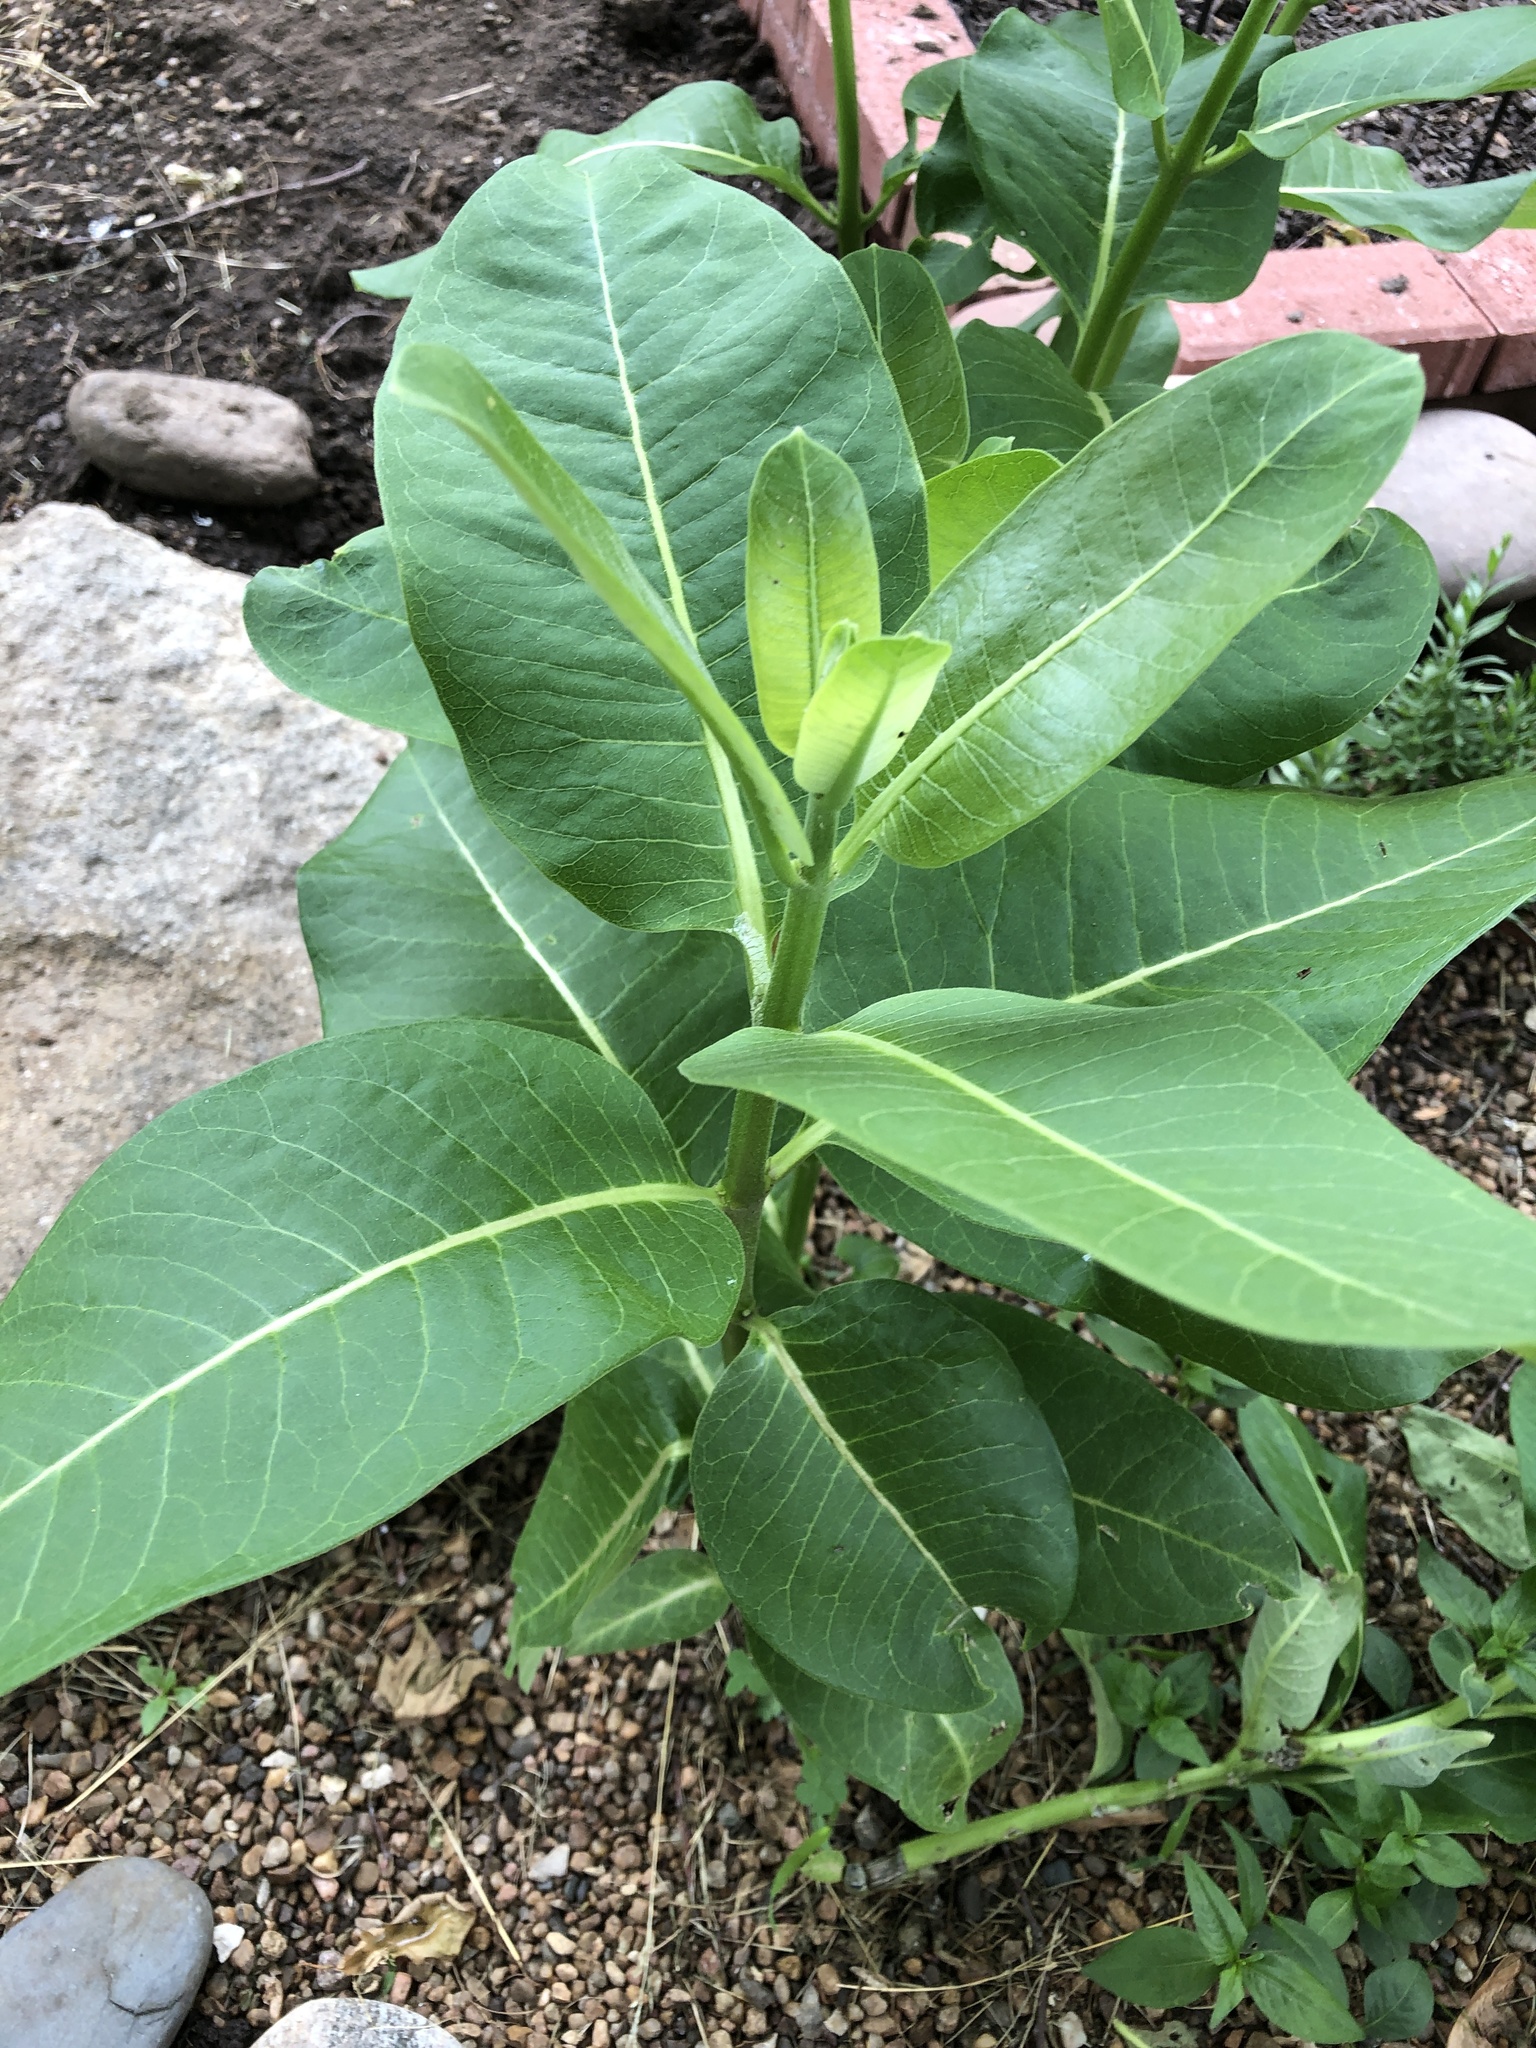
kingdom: Plantae
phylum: Tracheophyta
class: Magnoliopsida
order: Gentianales
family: Apocynaceae
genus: Asclepias
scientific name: Asclepias syriaca
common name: Common milkweed
